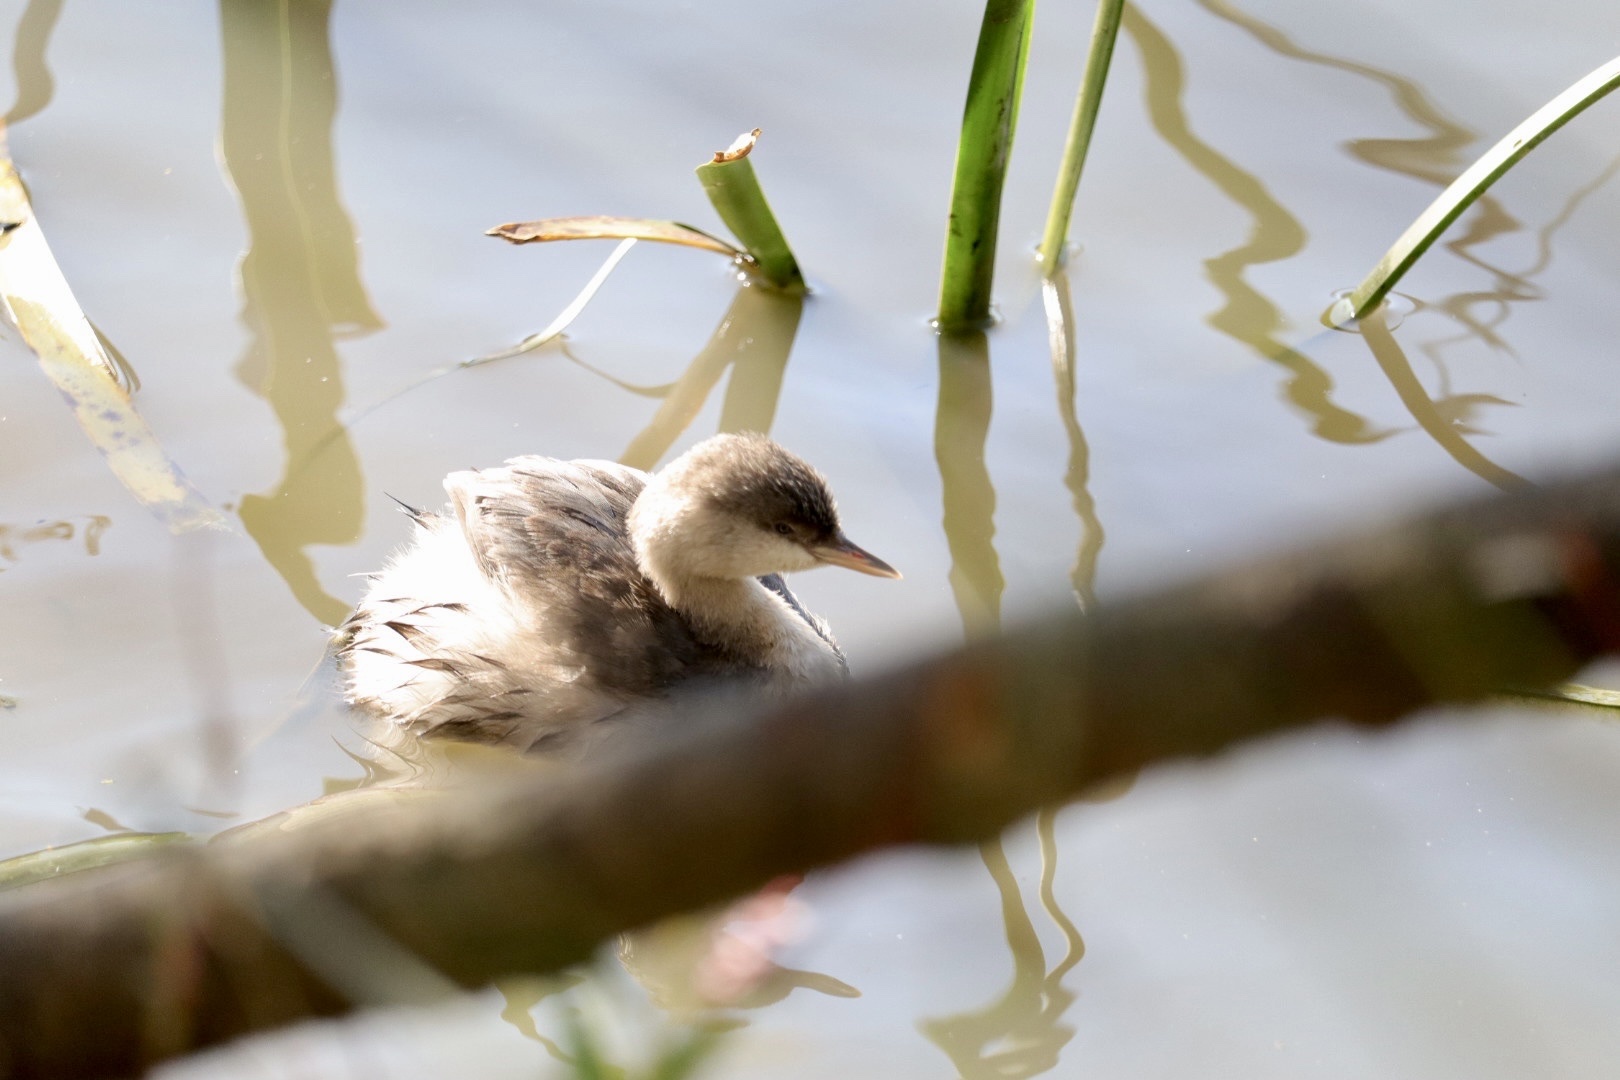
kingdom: Animalia
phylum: Chordata
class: Aves
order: Podicipediformes
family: Podicipedidae
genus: Poliocephalus
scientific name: Poliocephalus poliocephalus
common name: Hoary-headed grebe
